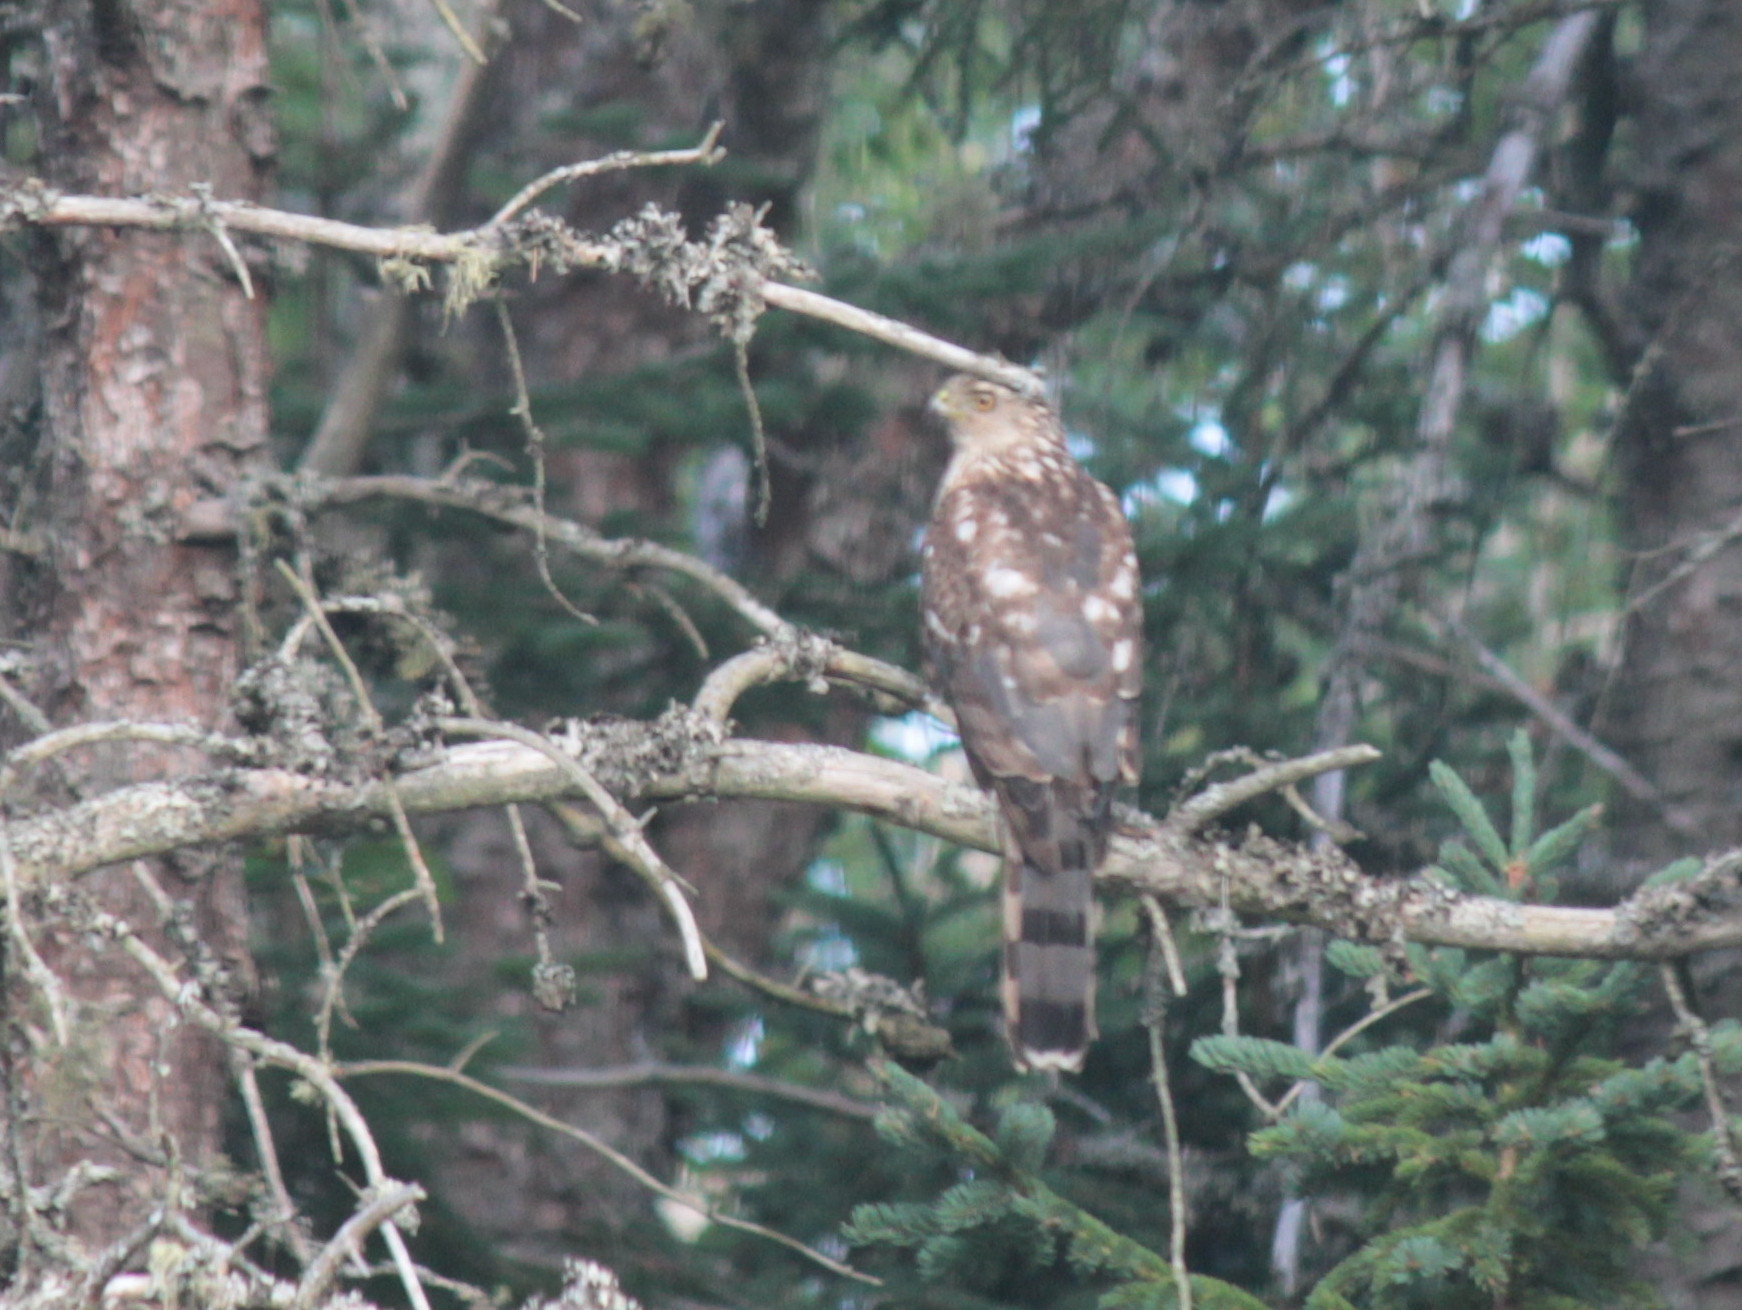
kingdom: Animalia
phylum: Chordata
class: Aves
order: Accipitriformes
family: Accipitridae
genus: Accipiter
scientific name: Accipiter cooperii
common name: Cooper's hawk
